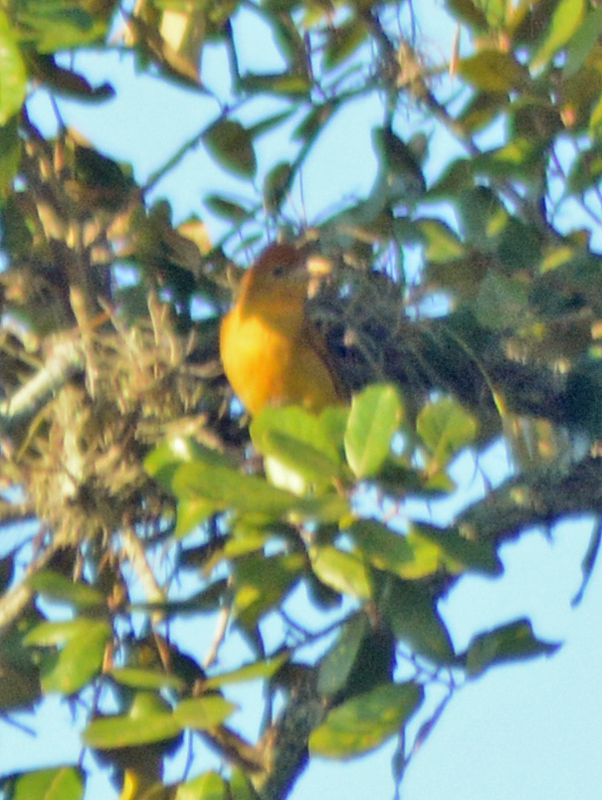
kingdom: Animalia
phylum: Chordata
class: Aves
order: Passeriformes
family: Cardinalidae
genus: Piranga
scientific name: Piranga rubra
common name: Summer tanager
